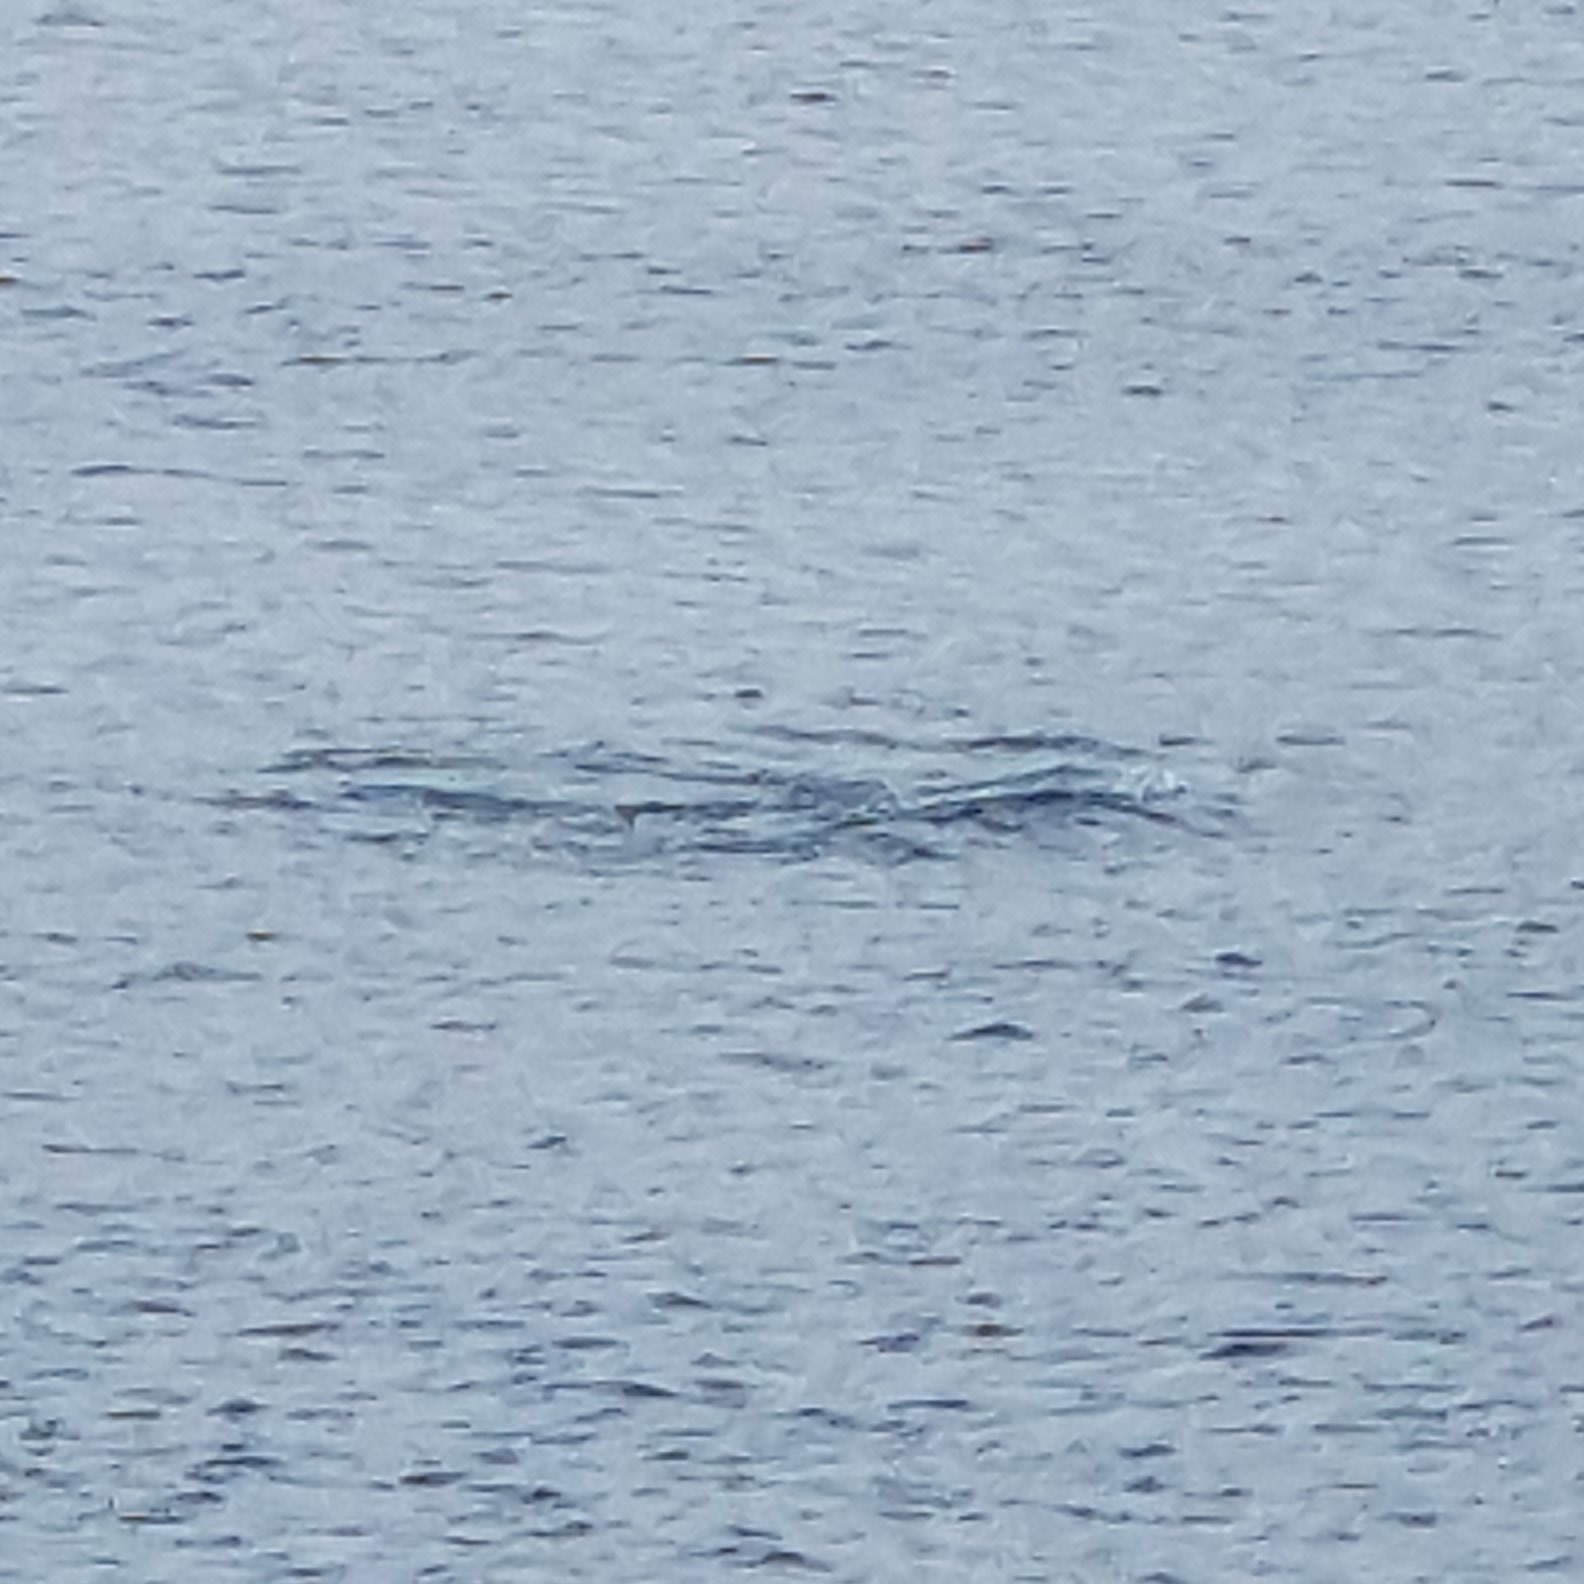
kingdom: Animalia
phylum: Chordata
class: Mammalia
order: Cetacea
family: Phocoenidae
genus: Phocoena
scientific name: Phocoena phocoena
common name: Harbor porpoise
